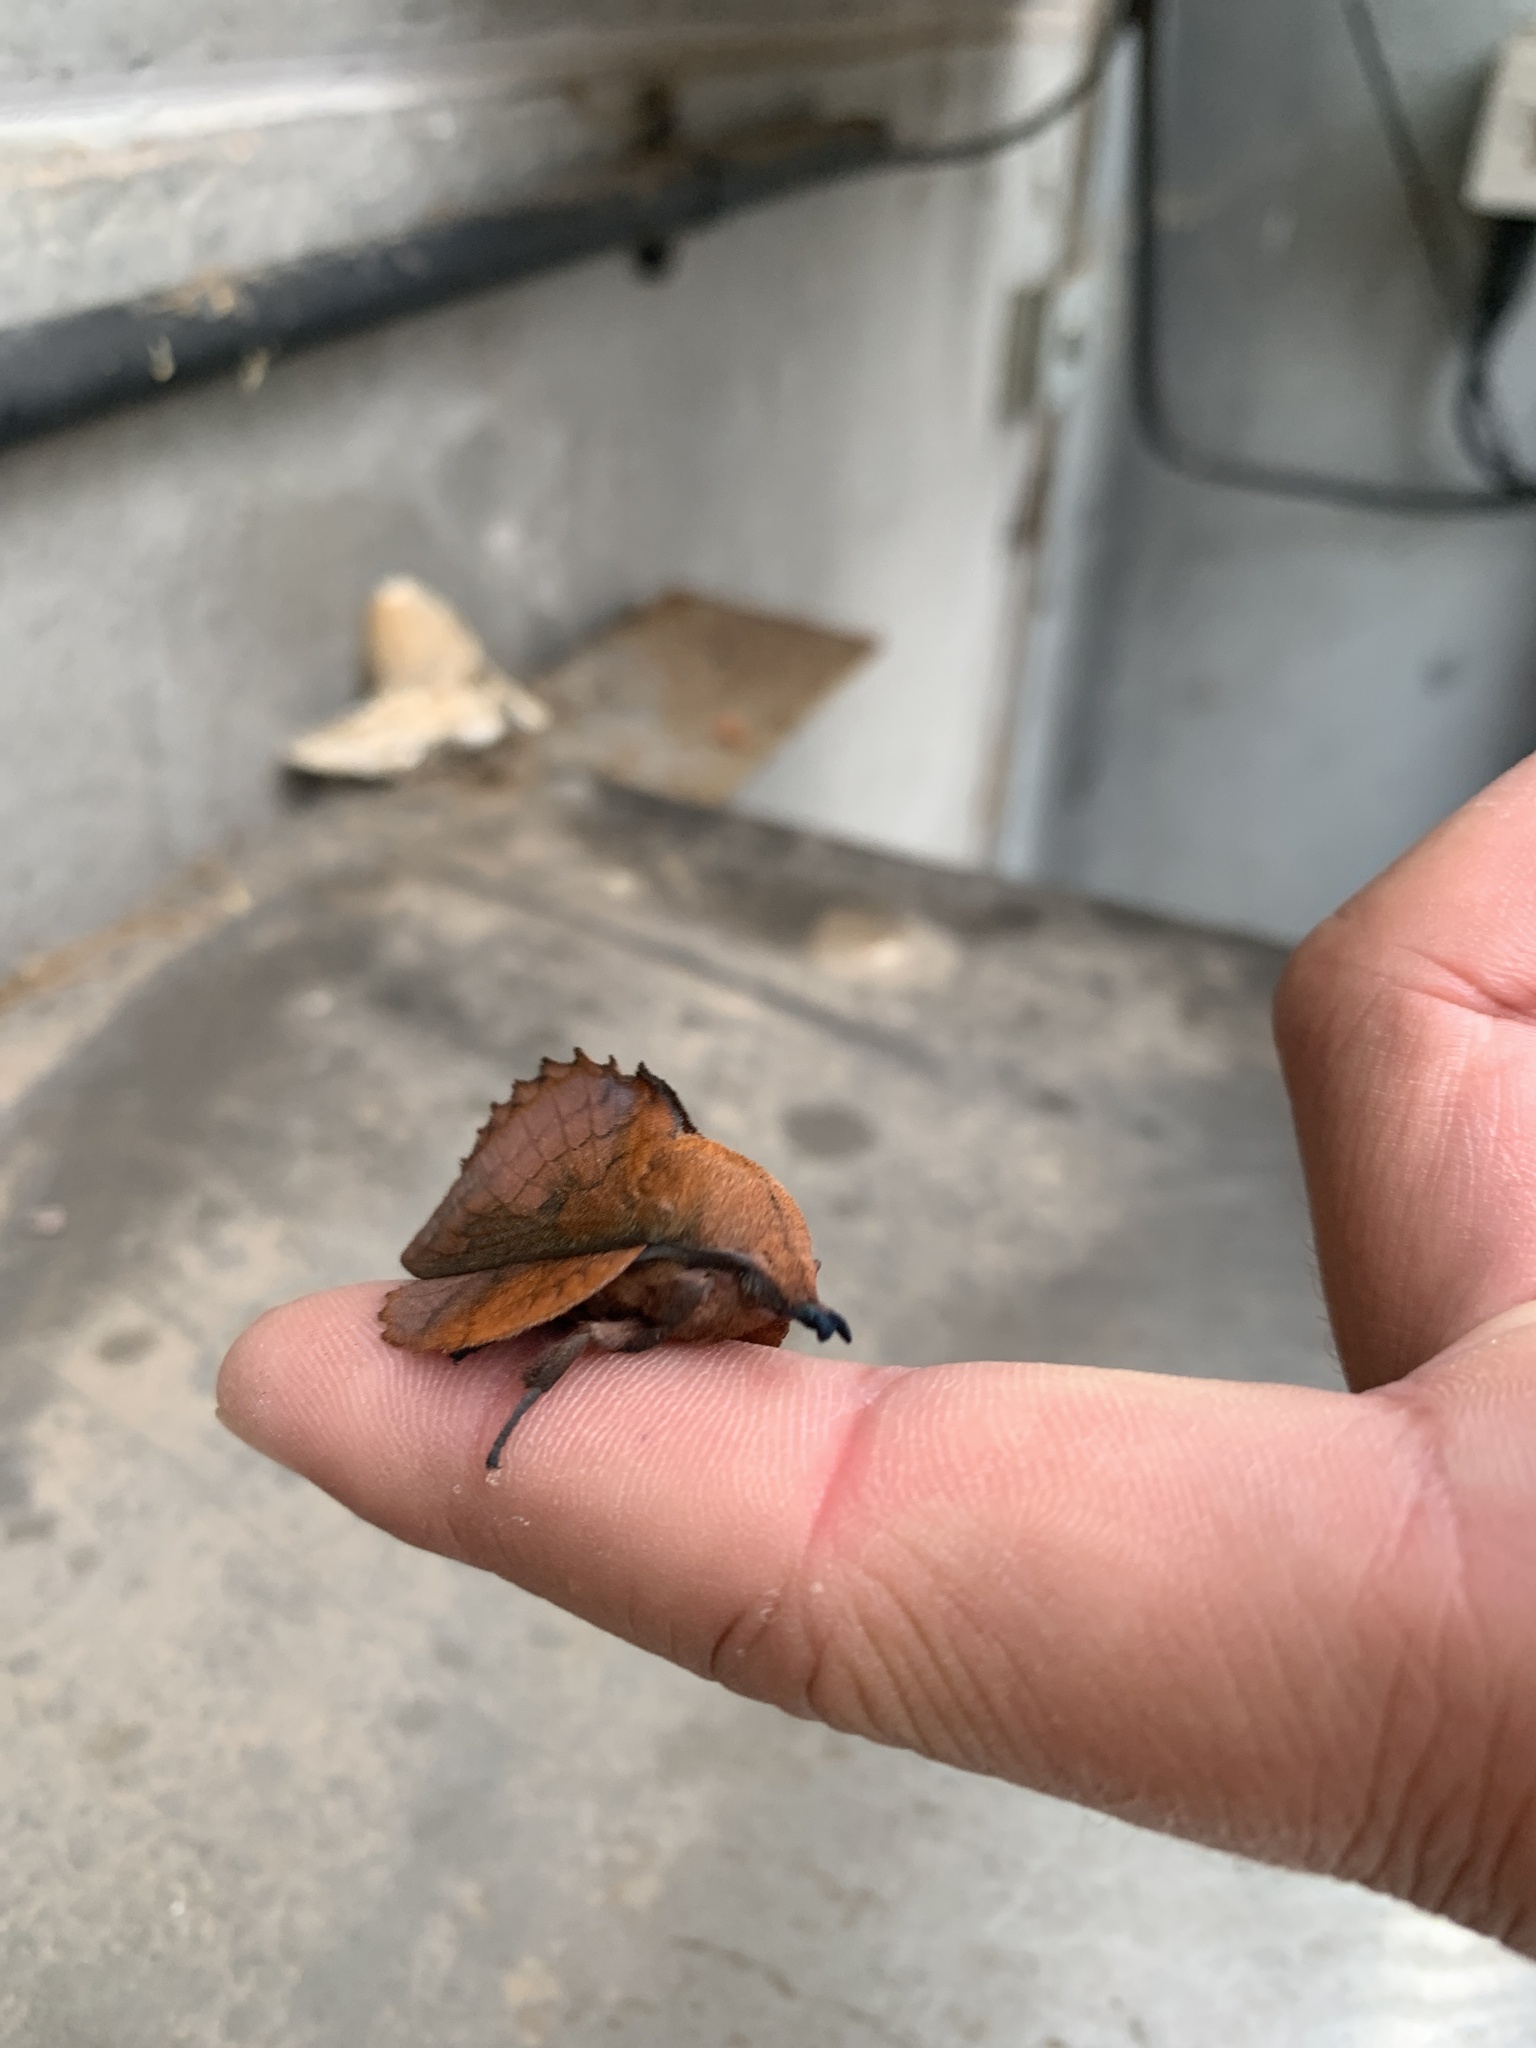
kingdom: Animalia
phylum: Arthropoda
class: Insecta
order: Lepidoptera
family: Lasiocampidae
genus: Gastropacha
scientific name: Gastropacha quercifolia
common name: Lappet
